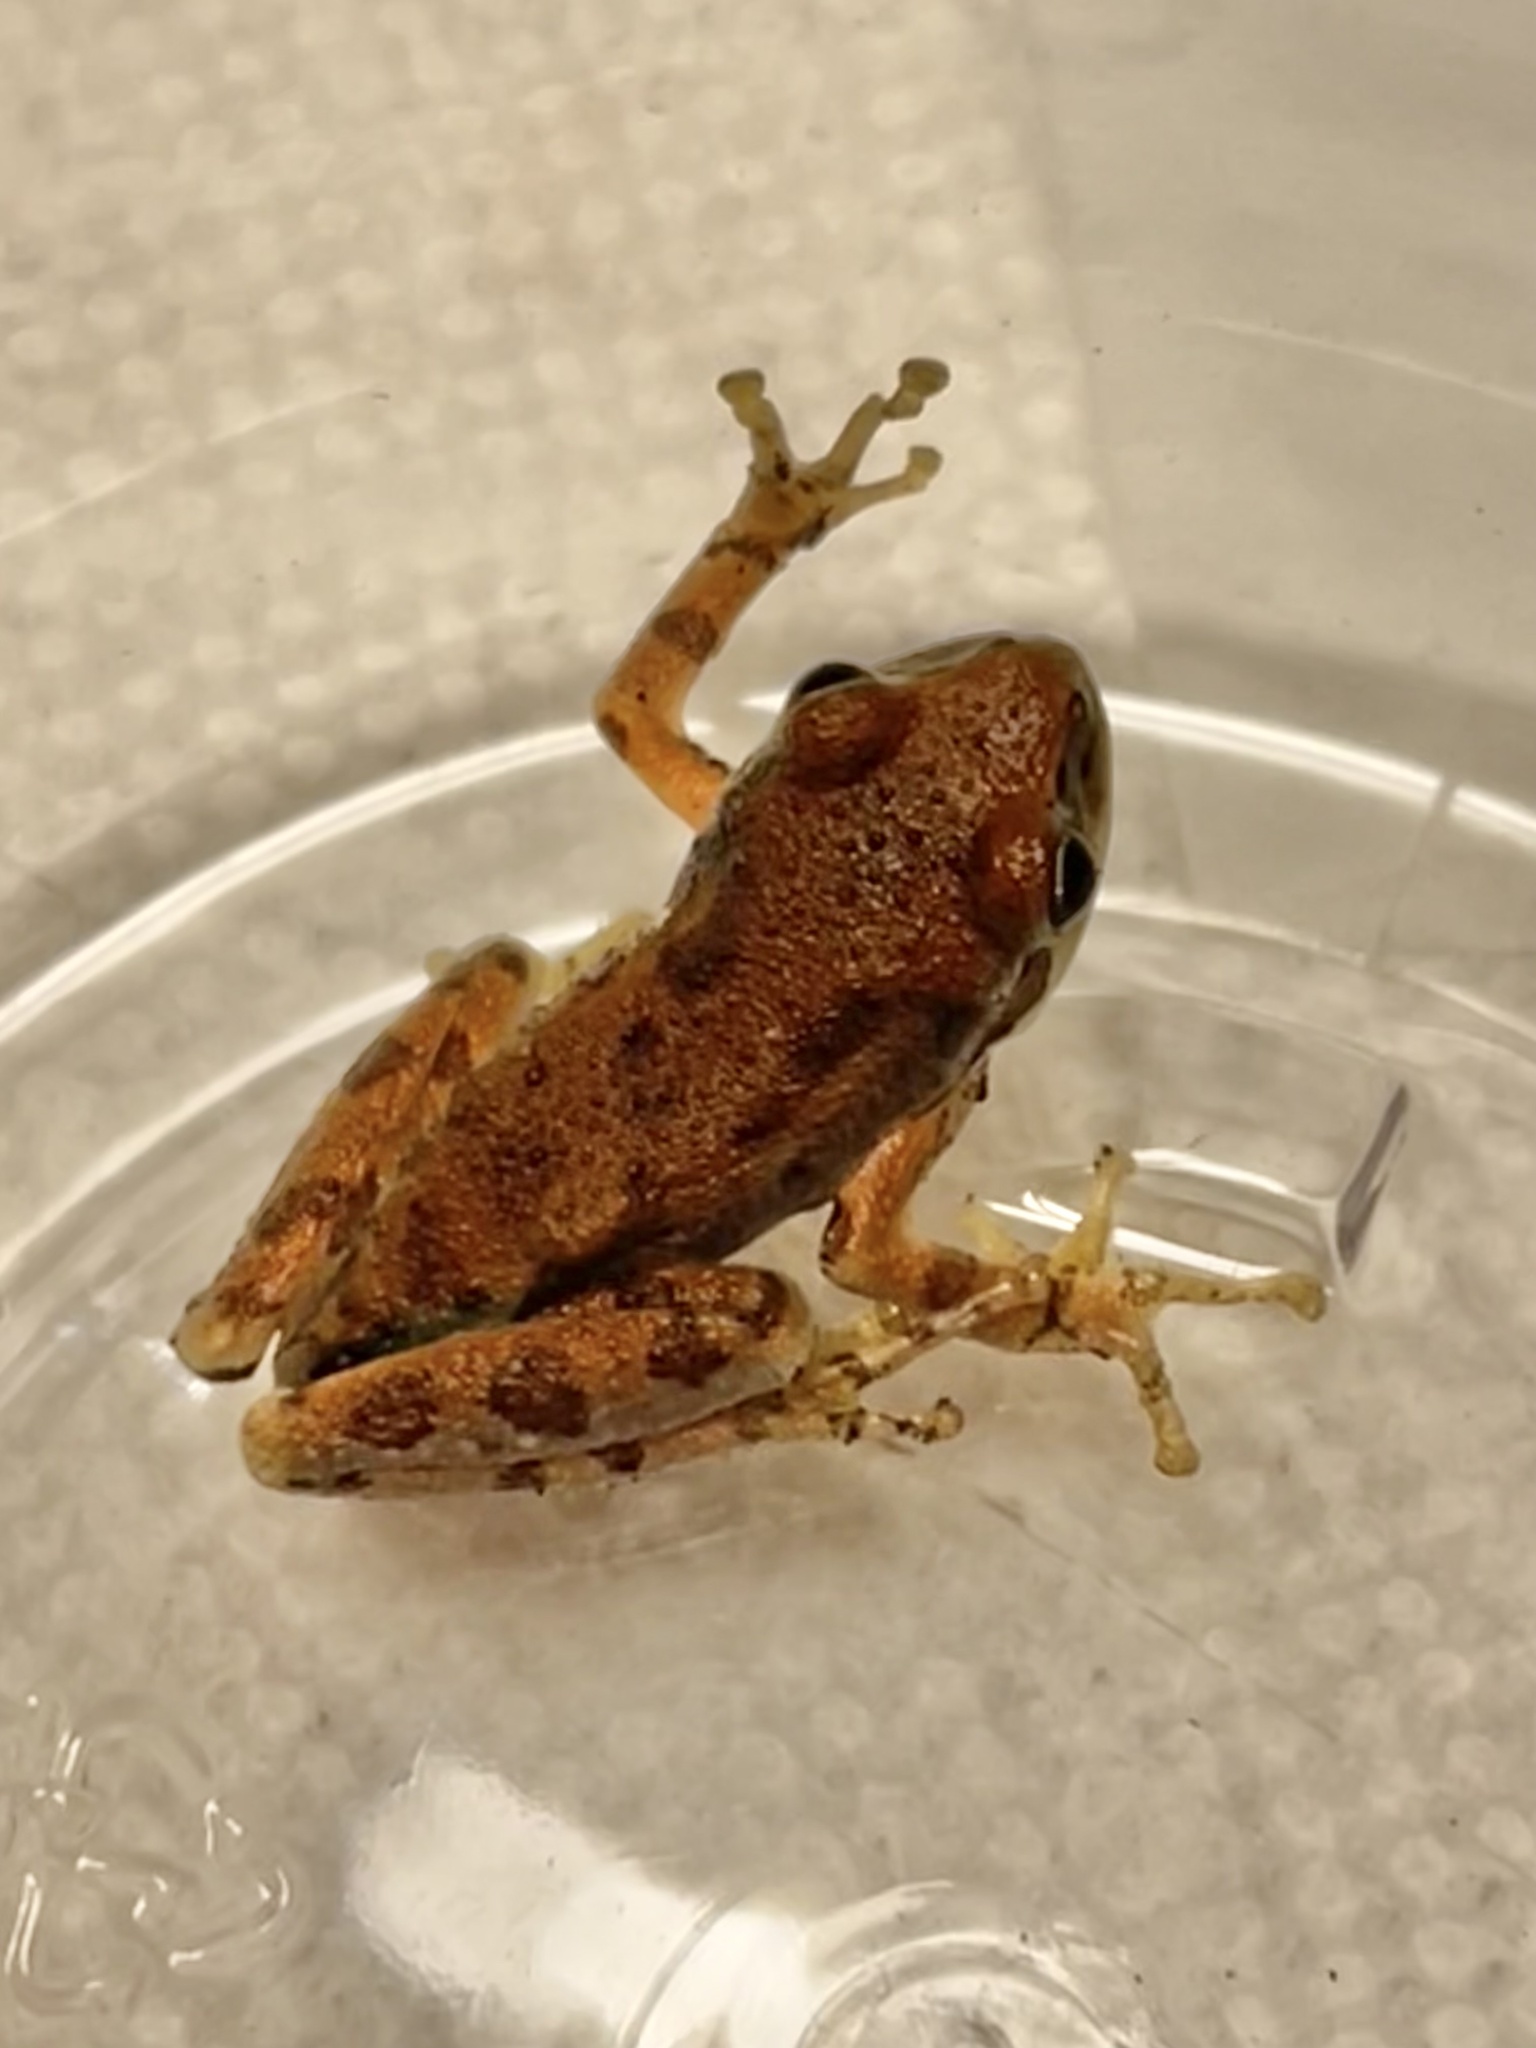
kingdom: Animalia
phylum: Chordata
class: Amphibia
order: Anura
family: Hylidae
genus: Pseudacris
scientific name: Pseudacris regilla
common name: Pacific chorus frog
